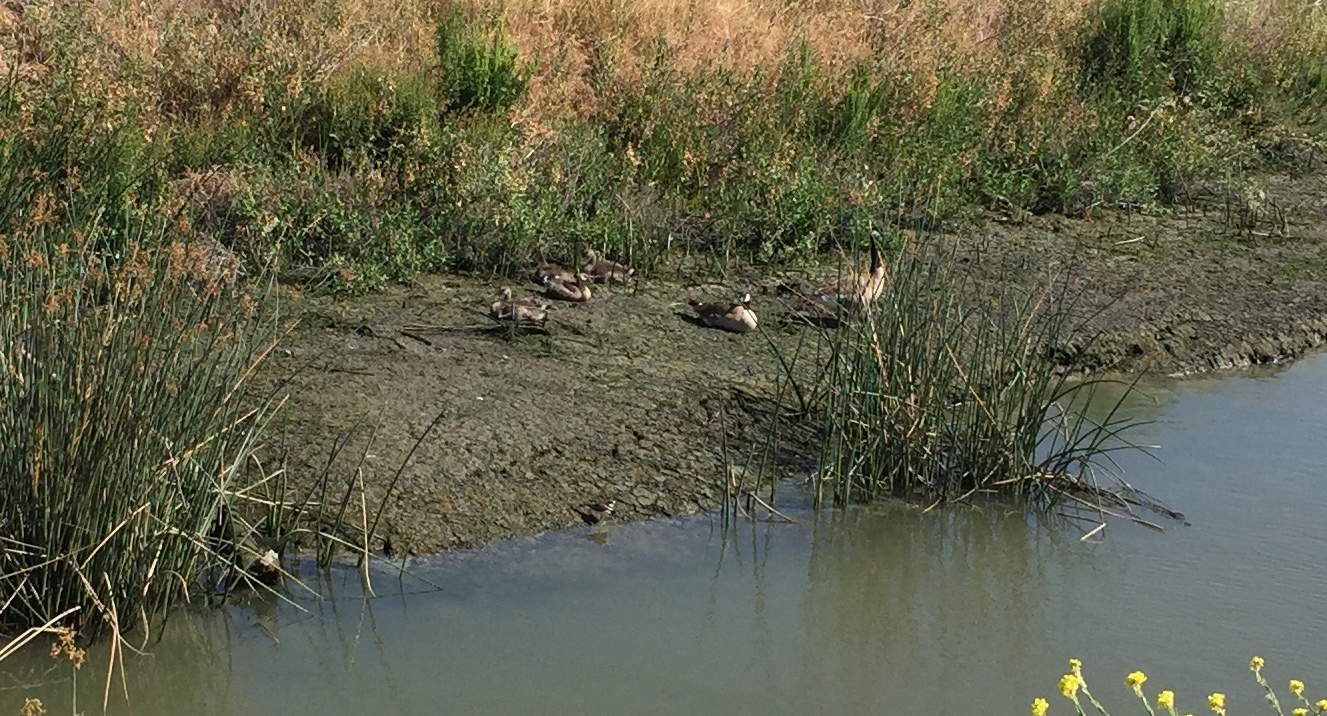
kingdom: Animalia
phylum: Chordata
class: Aves
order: Charadriiformes
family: Charadriidae
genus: Charadrius
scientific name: Charadrius vociferus
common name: Killdeer
